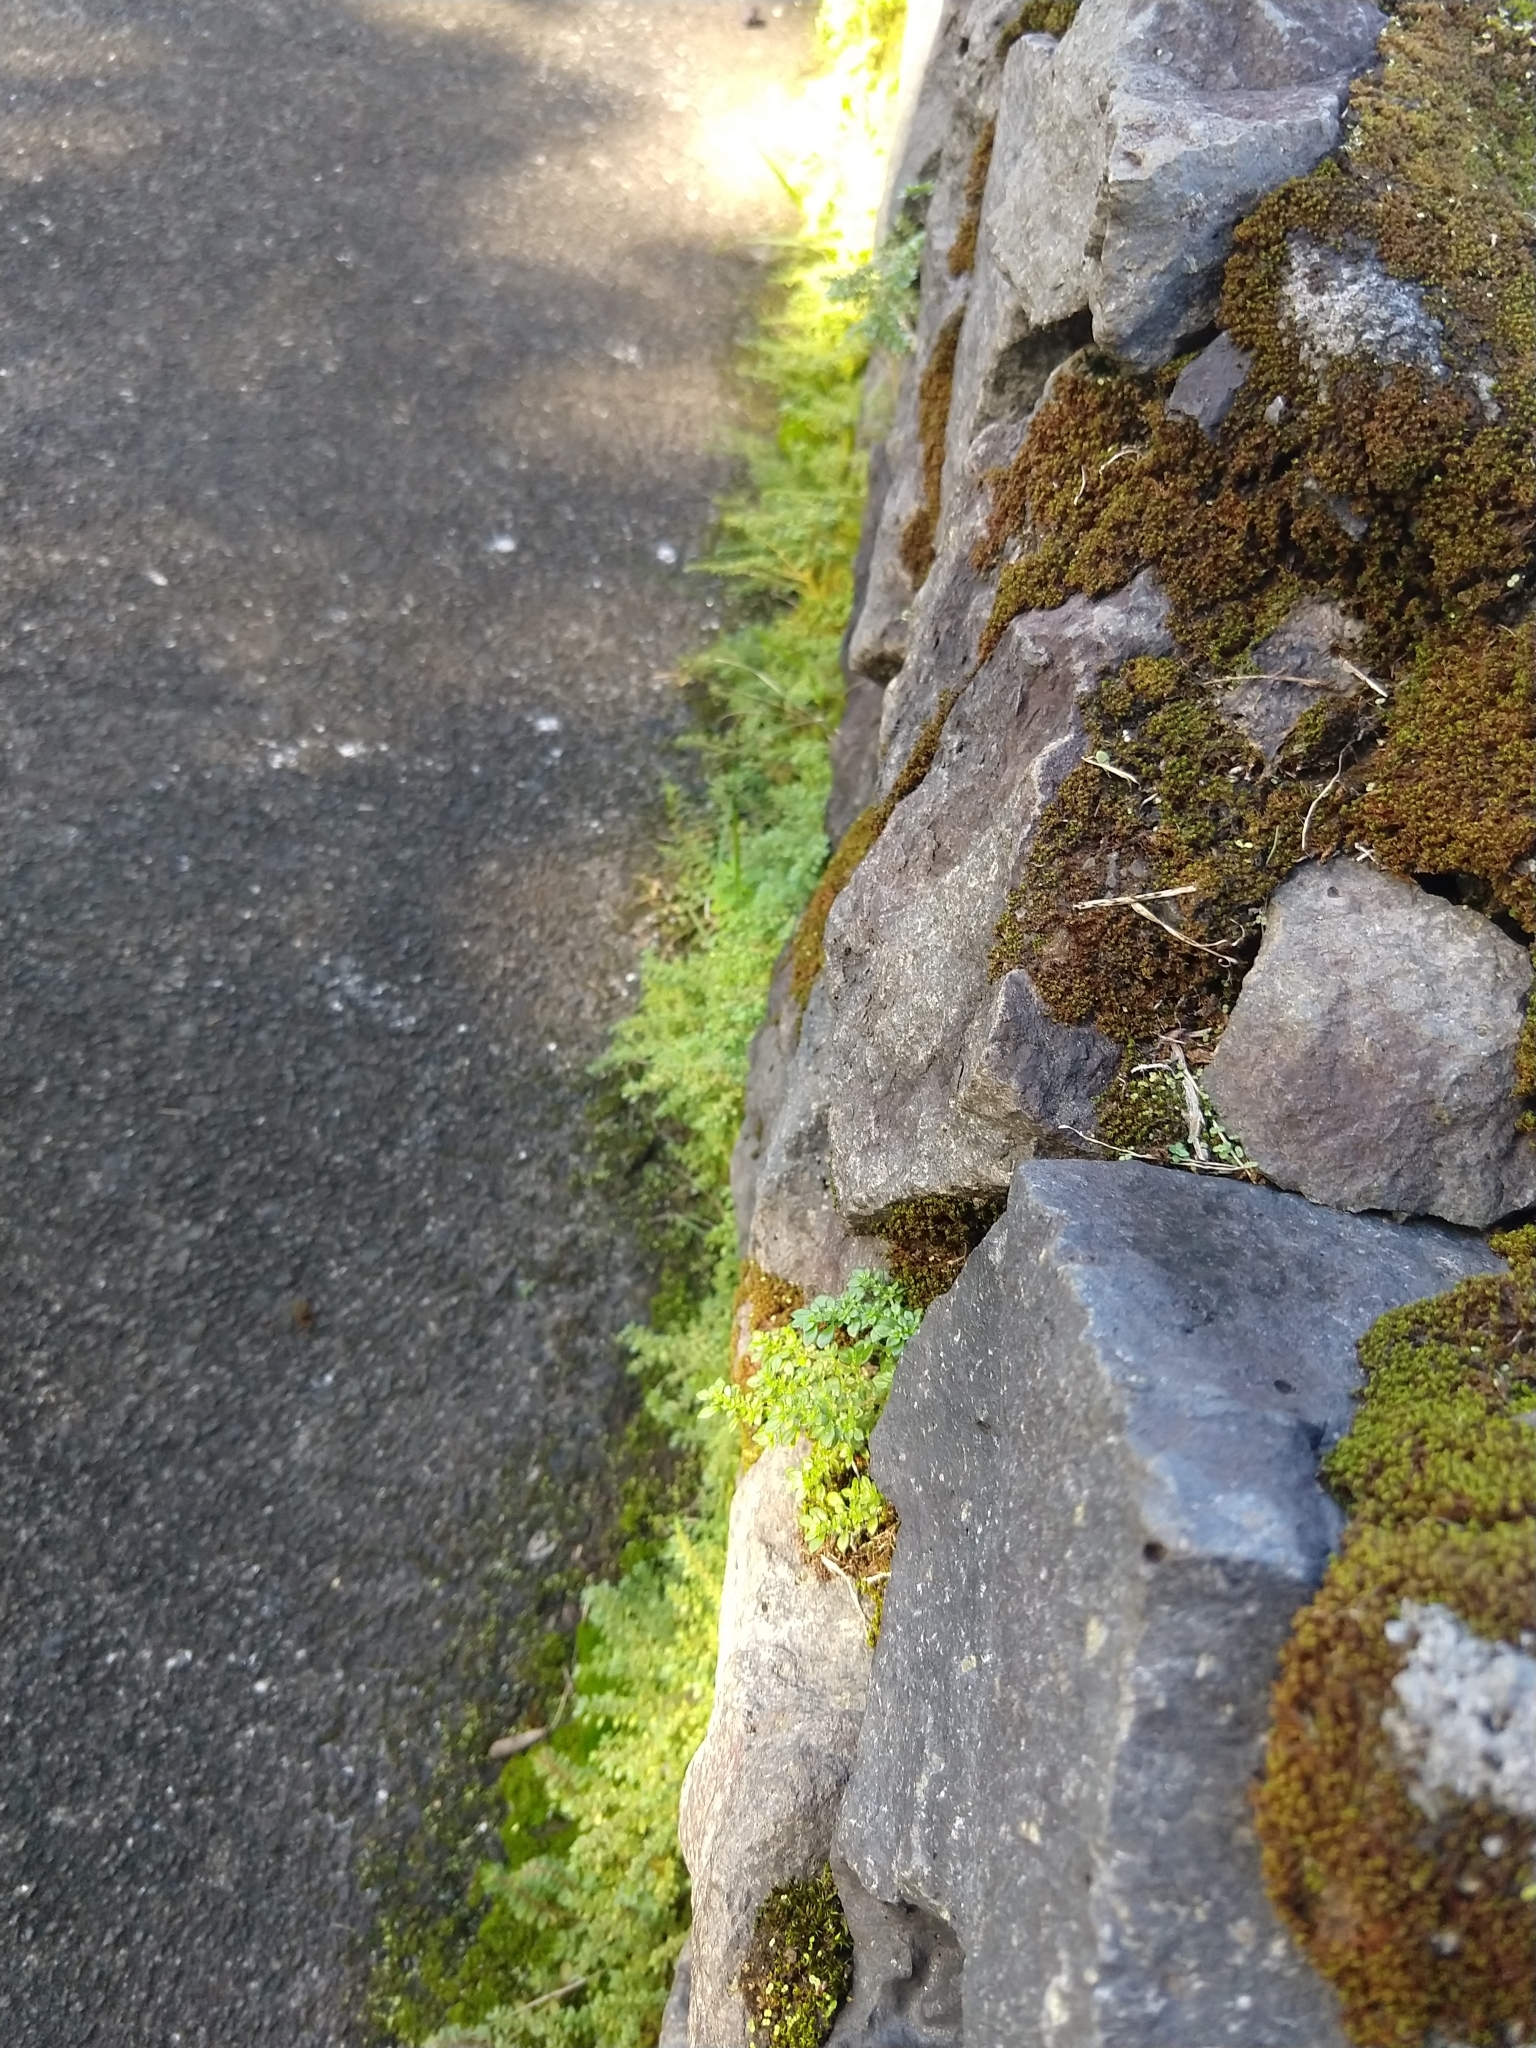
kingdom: Plantae
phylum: Tracheophyta
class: Magnoliopsida
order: Rosales
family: Urticaceae
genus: Pilea
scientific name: Pilea microphylla
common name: Artillery-plant
